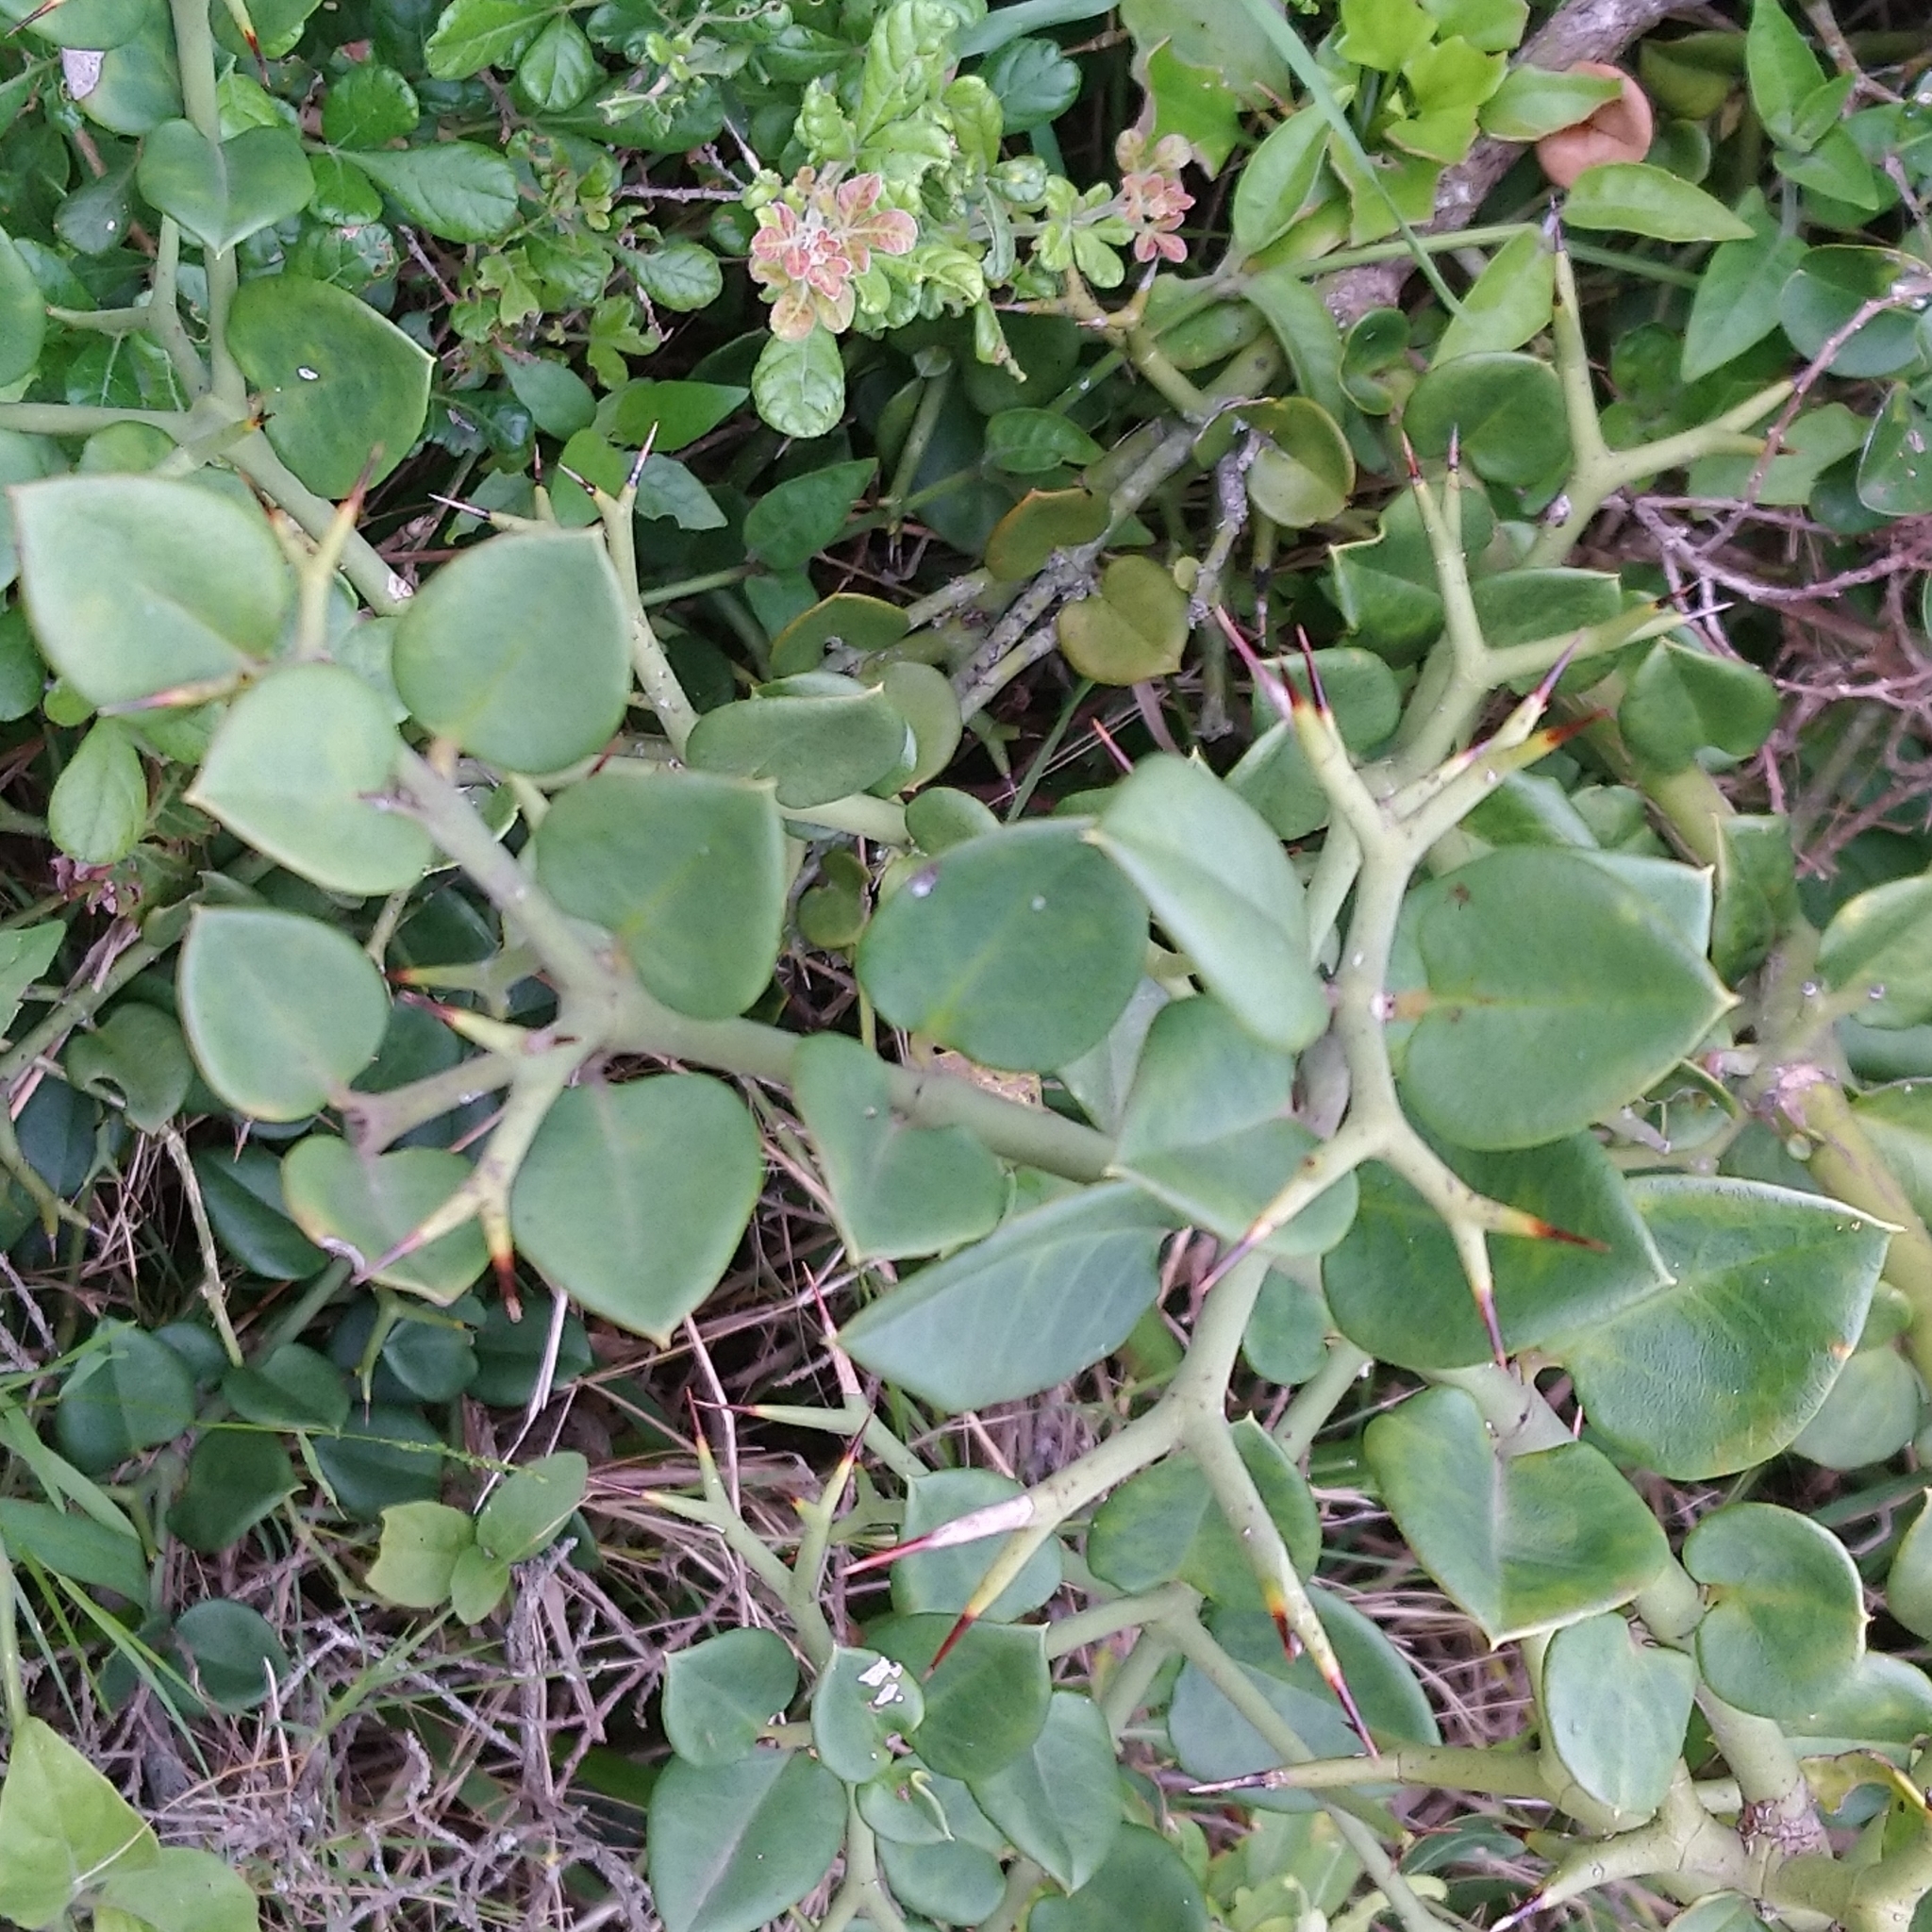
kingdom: Plantae
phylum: Tracheophyta
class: Magnoliopsida
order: Gentianales
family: Apocynaceae
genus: Carissa
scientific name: Carissa bispinosa
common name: Forest num-num
